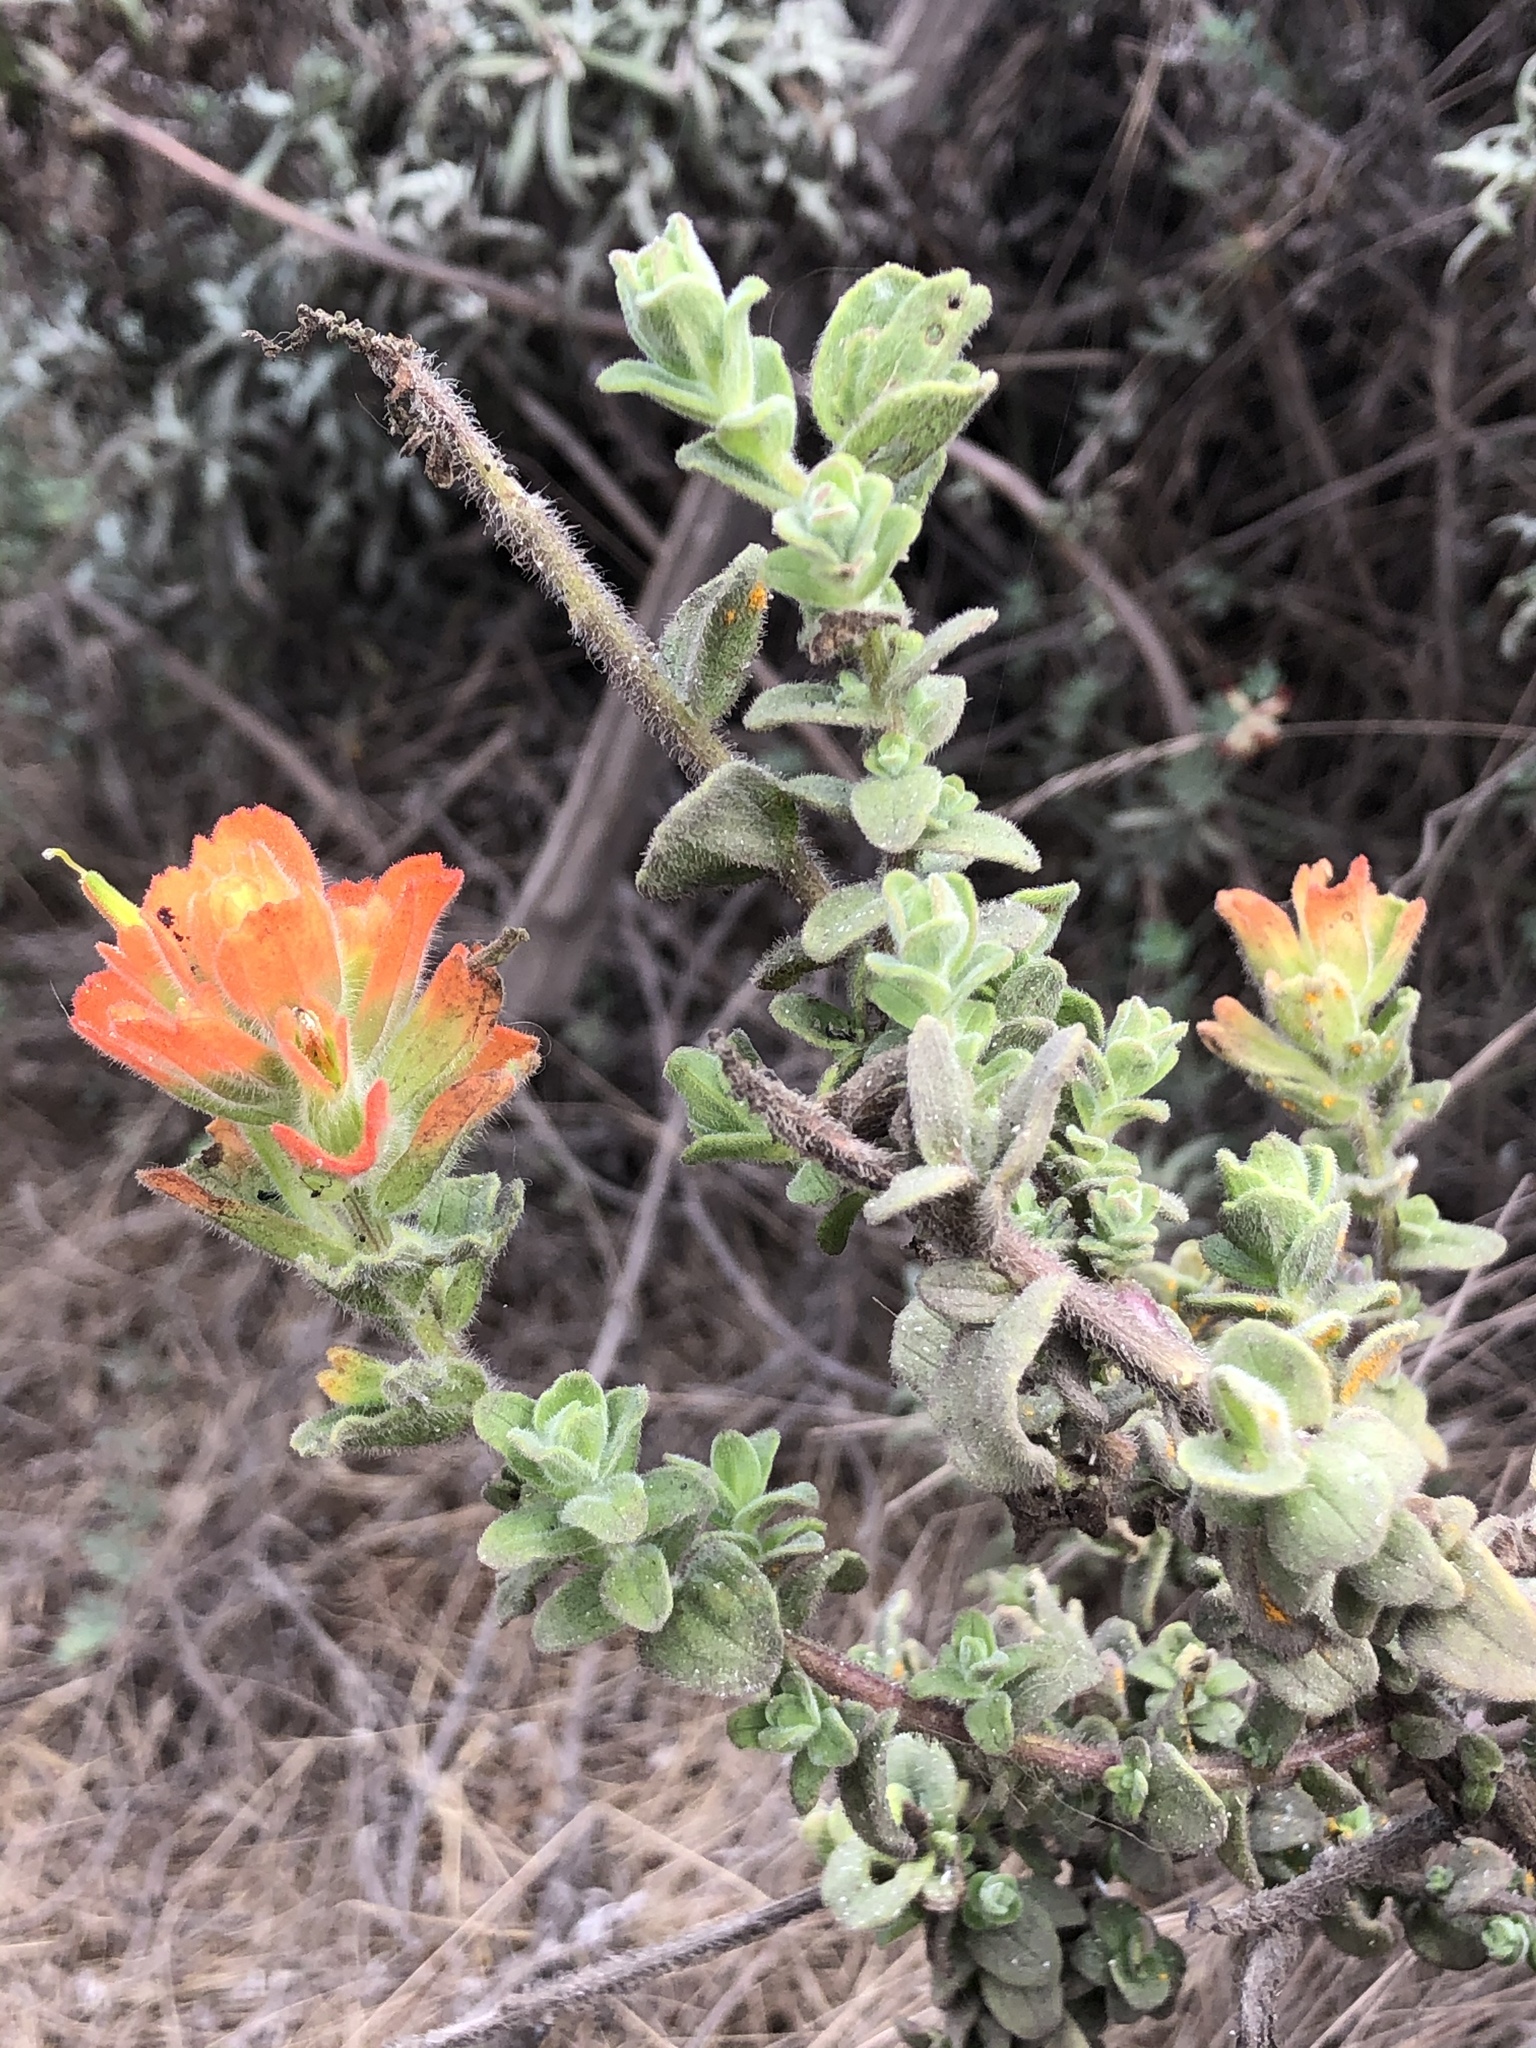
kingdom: Plantae
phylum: Tracheophyta
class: Magnoliopsida
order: Lamiales
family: Orobanchaceae
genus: Castilleja
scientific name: Castilleja latifolia
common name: Monterey indian paintbrush
